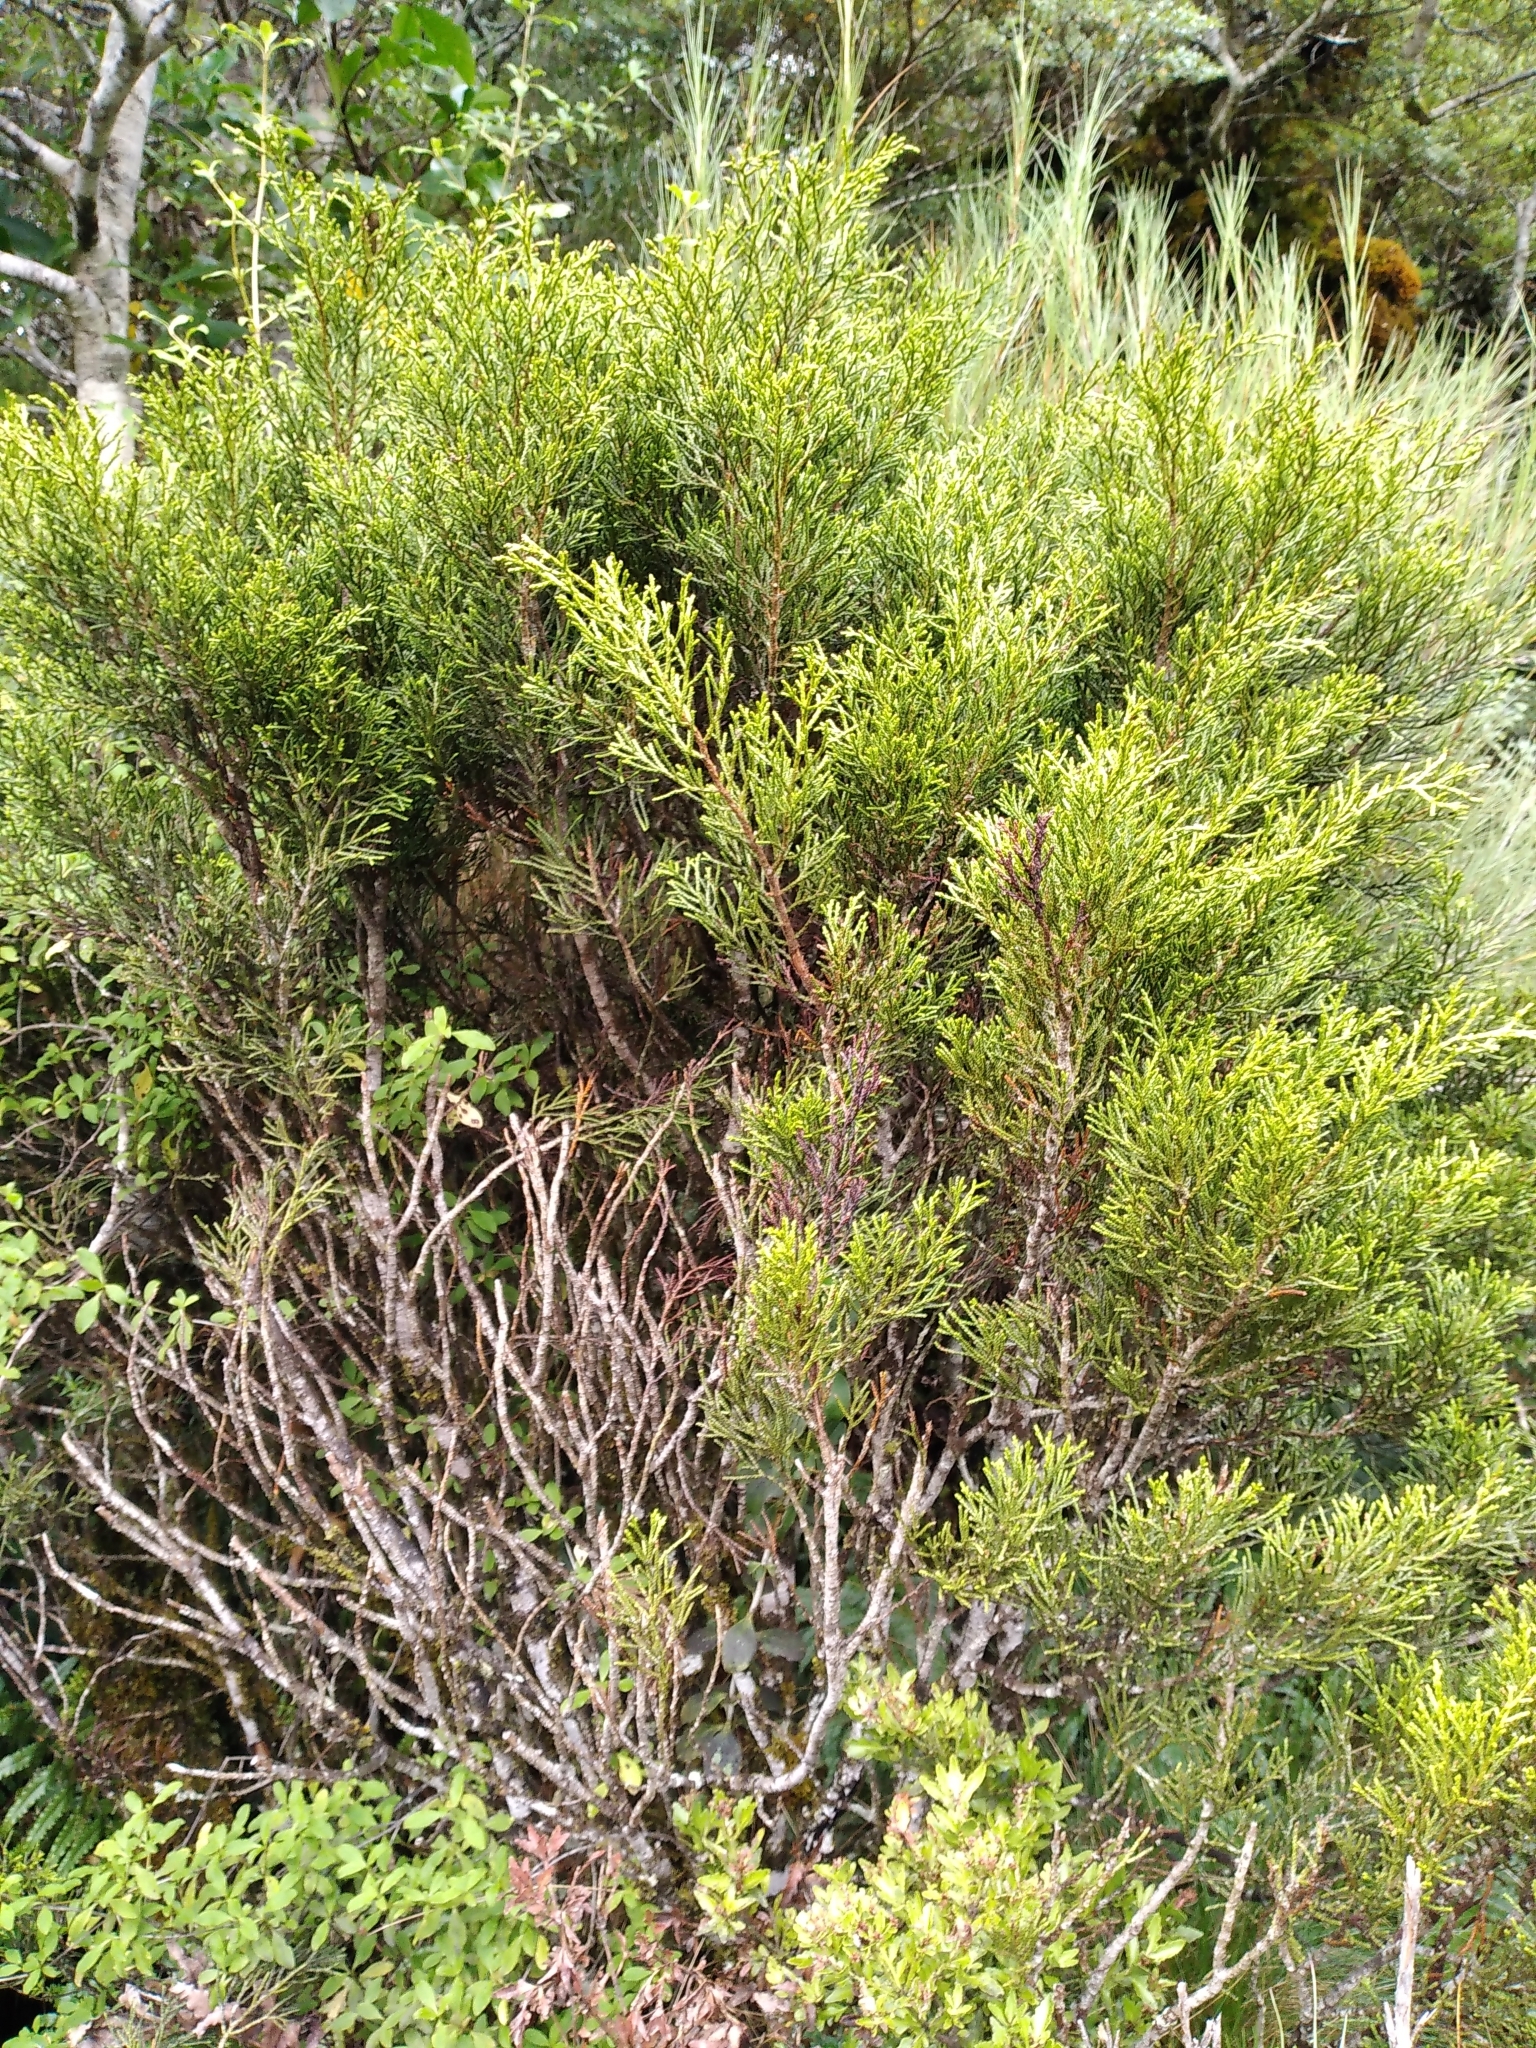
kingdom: Plantae
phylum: Tracheophyta
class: Pinopsida
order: Pinales
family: Podocarpaceae
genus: Halocarpus
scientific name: Halocarpus bidwillii
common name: Bog pine
